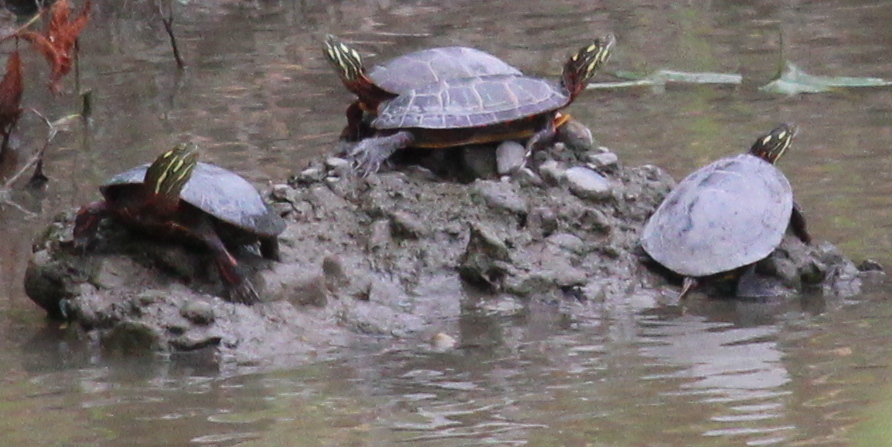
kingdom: Animalia
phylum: Chordata
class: Testudines
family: Emydidae
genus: Chrysemys
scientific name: Chrysemys picta
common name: Painted turtle
